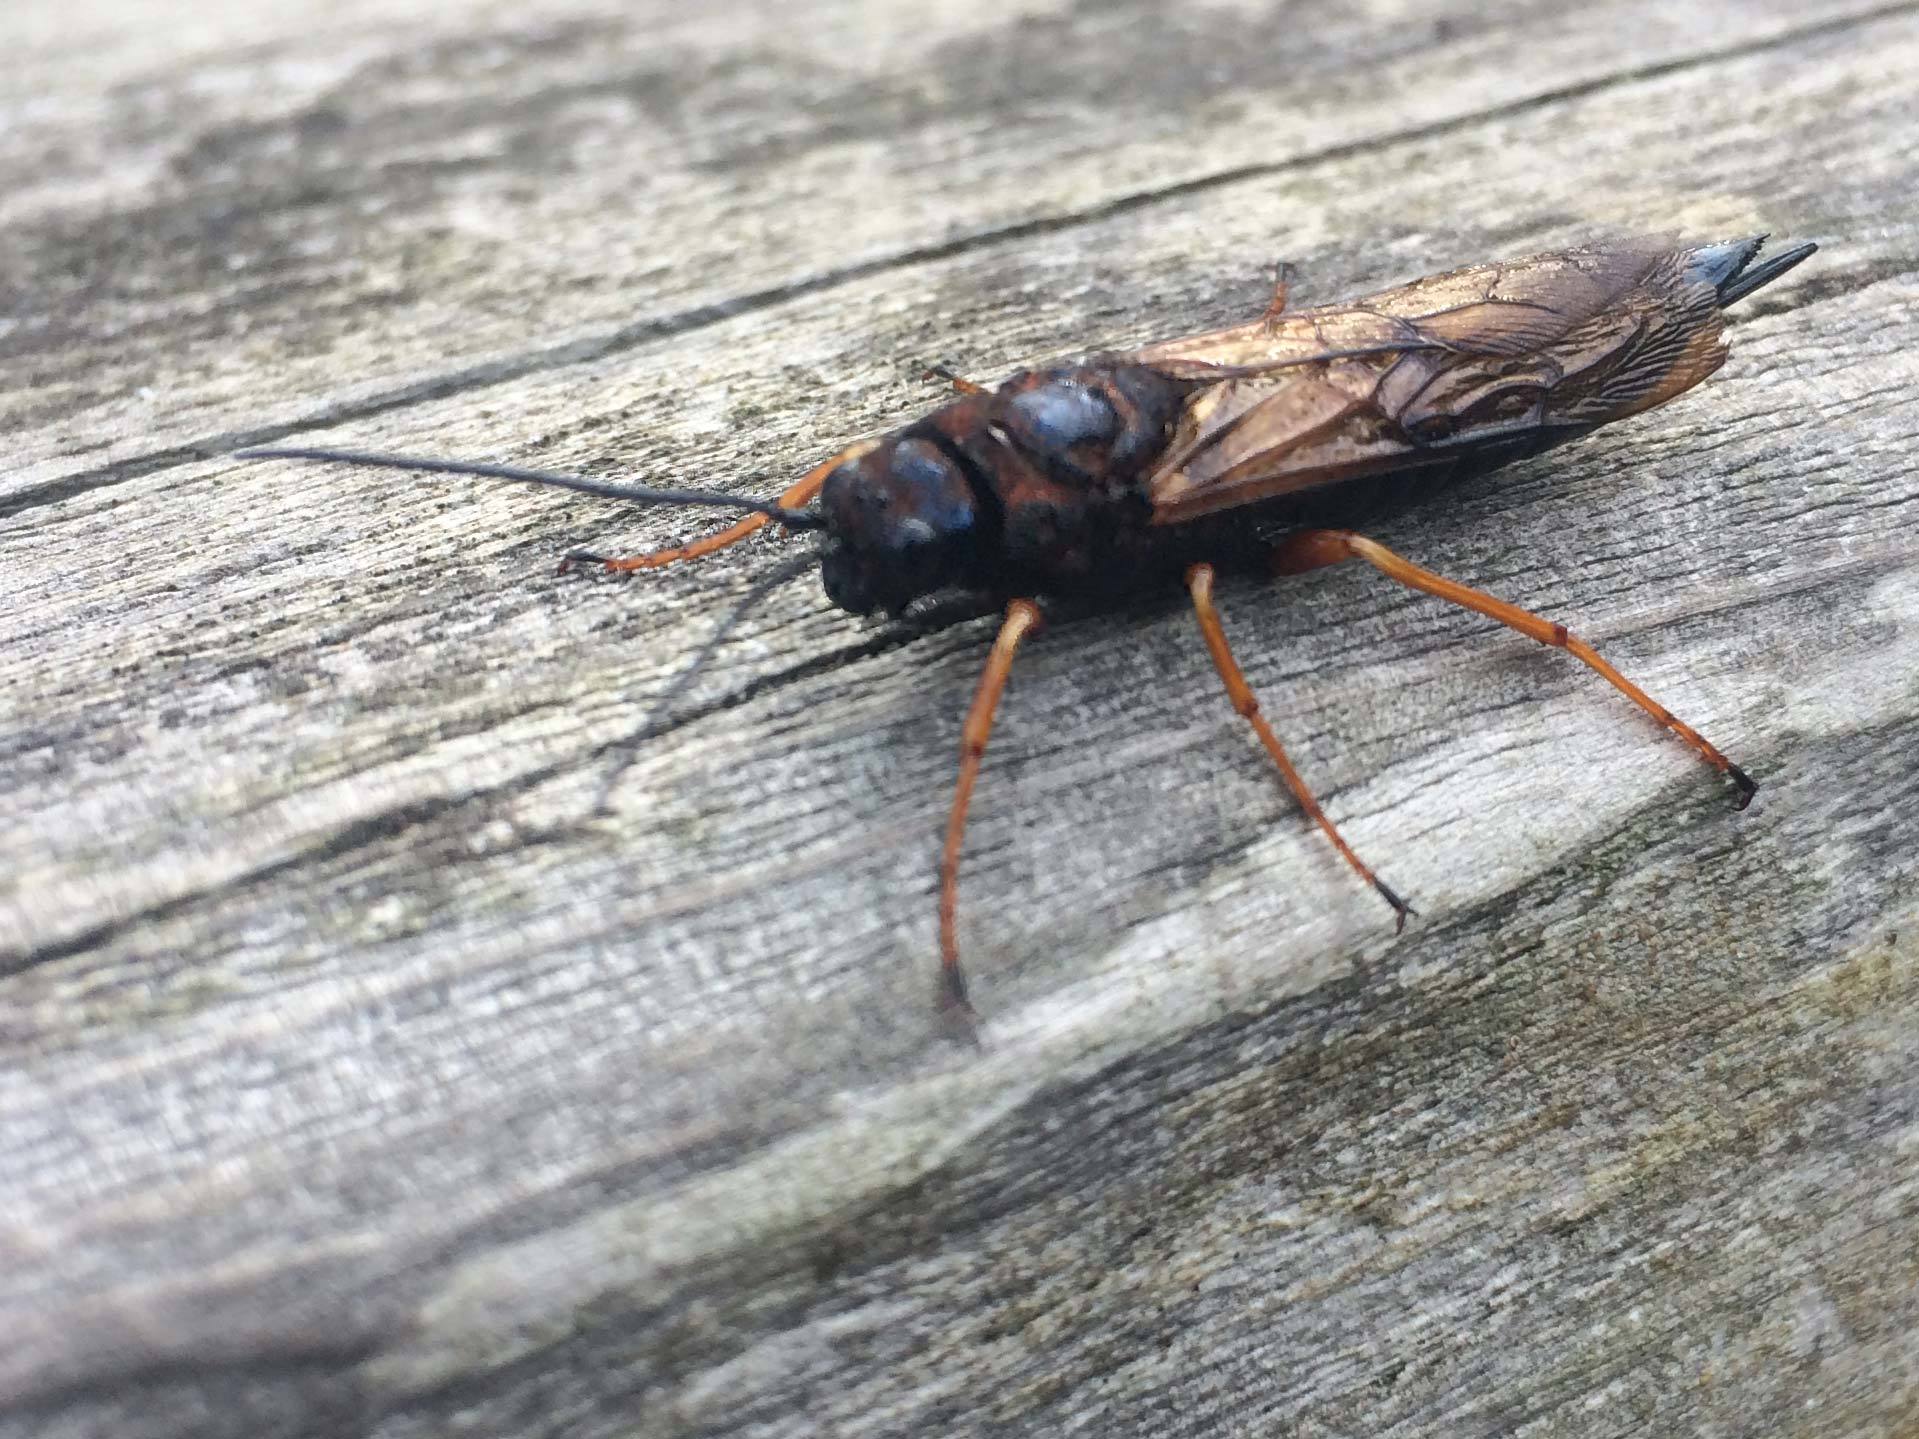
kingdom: Animalia
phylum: Arthropoda
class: Insecta
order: Hymenoptera
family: Siricidae
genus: Sirex
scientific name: Sirex noctilio
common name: Woodwasp
